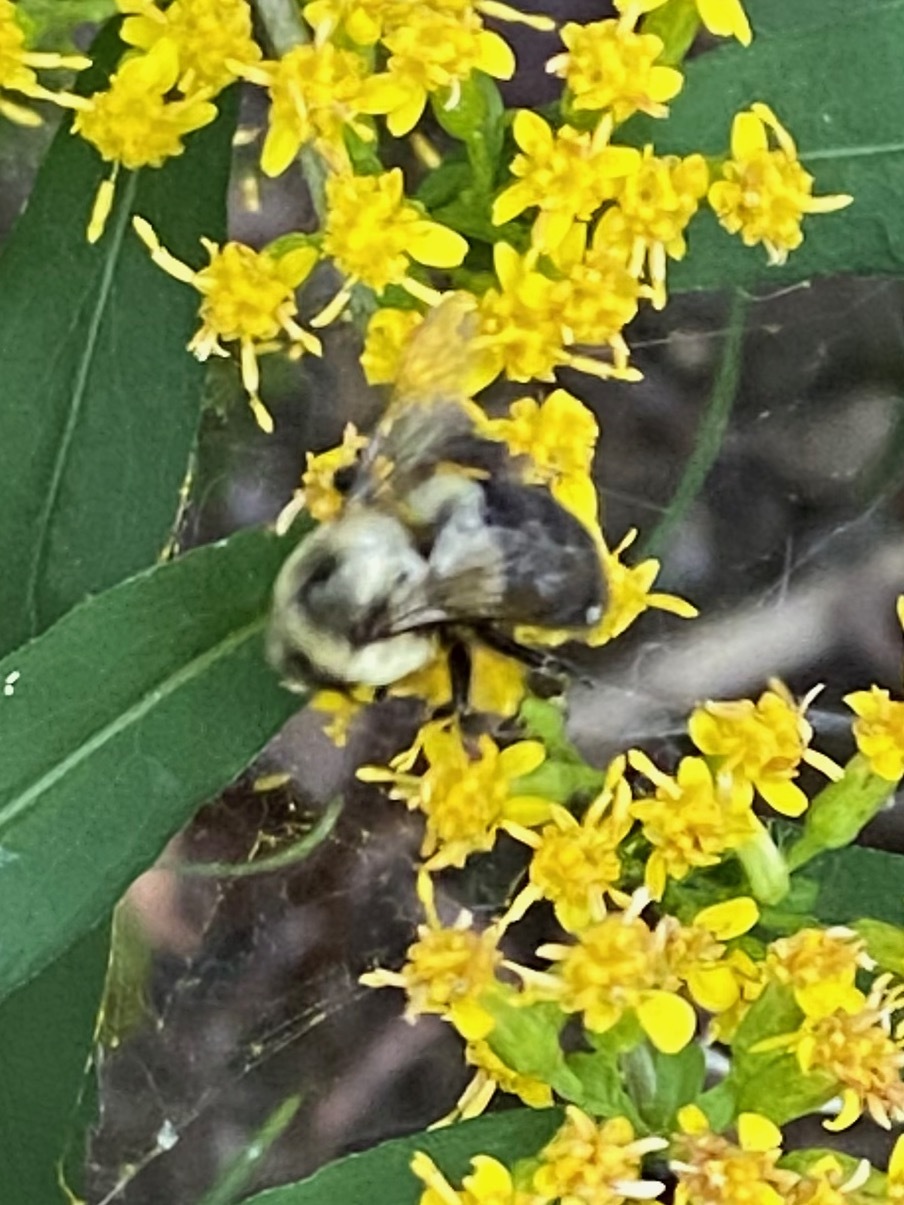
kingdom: Animalia
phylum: Arthropoda
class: Insecta
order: Hymenoptera
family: Apidae
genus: Bombus
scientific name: Bombus impatiens
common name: Common eastern bumble bee
